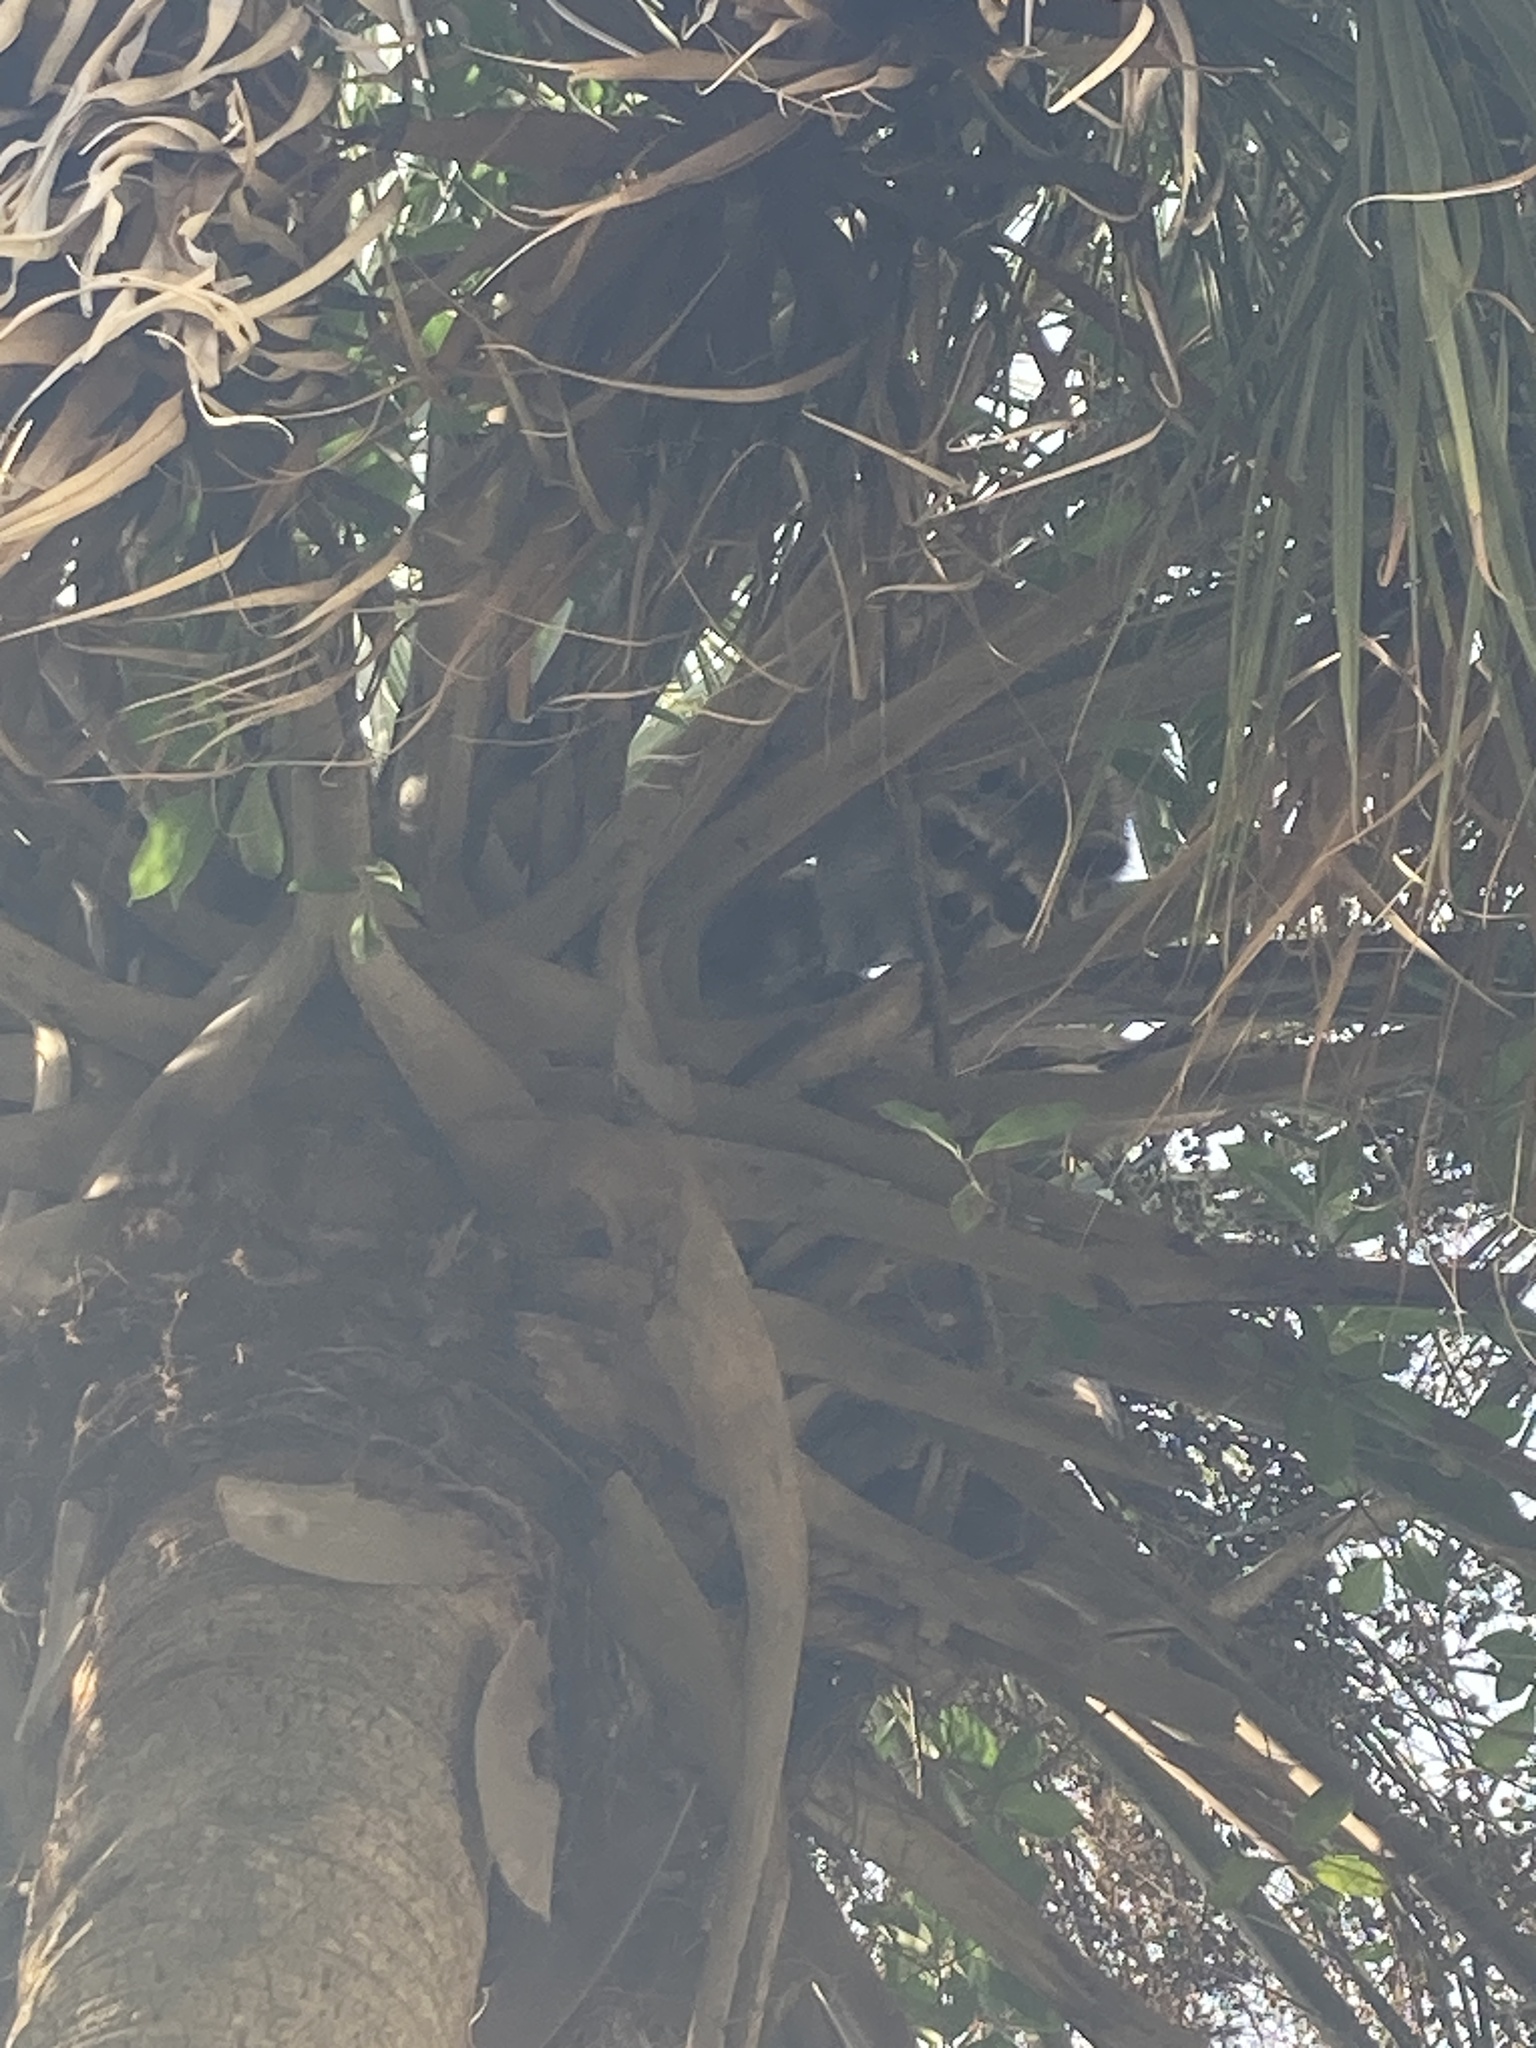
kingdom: Animalia
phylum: Chordata
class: Mammalia
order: Carnivora
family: Procyonidae
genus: Procyon
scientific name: Procyon lotor
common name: Raccoon
